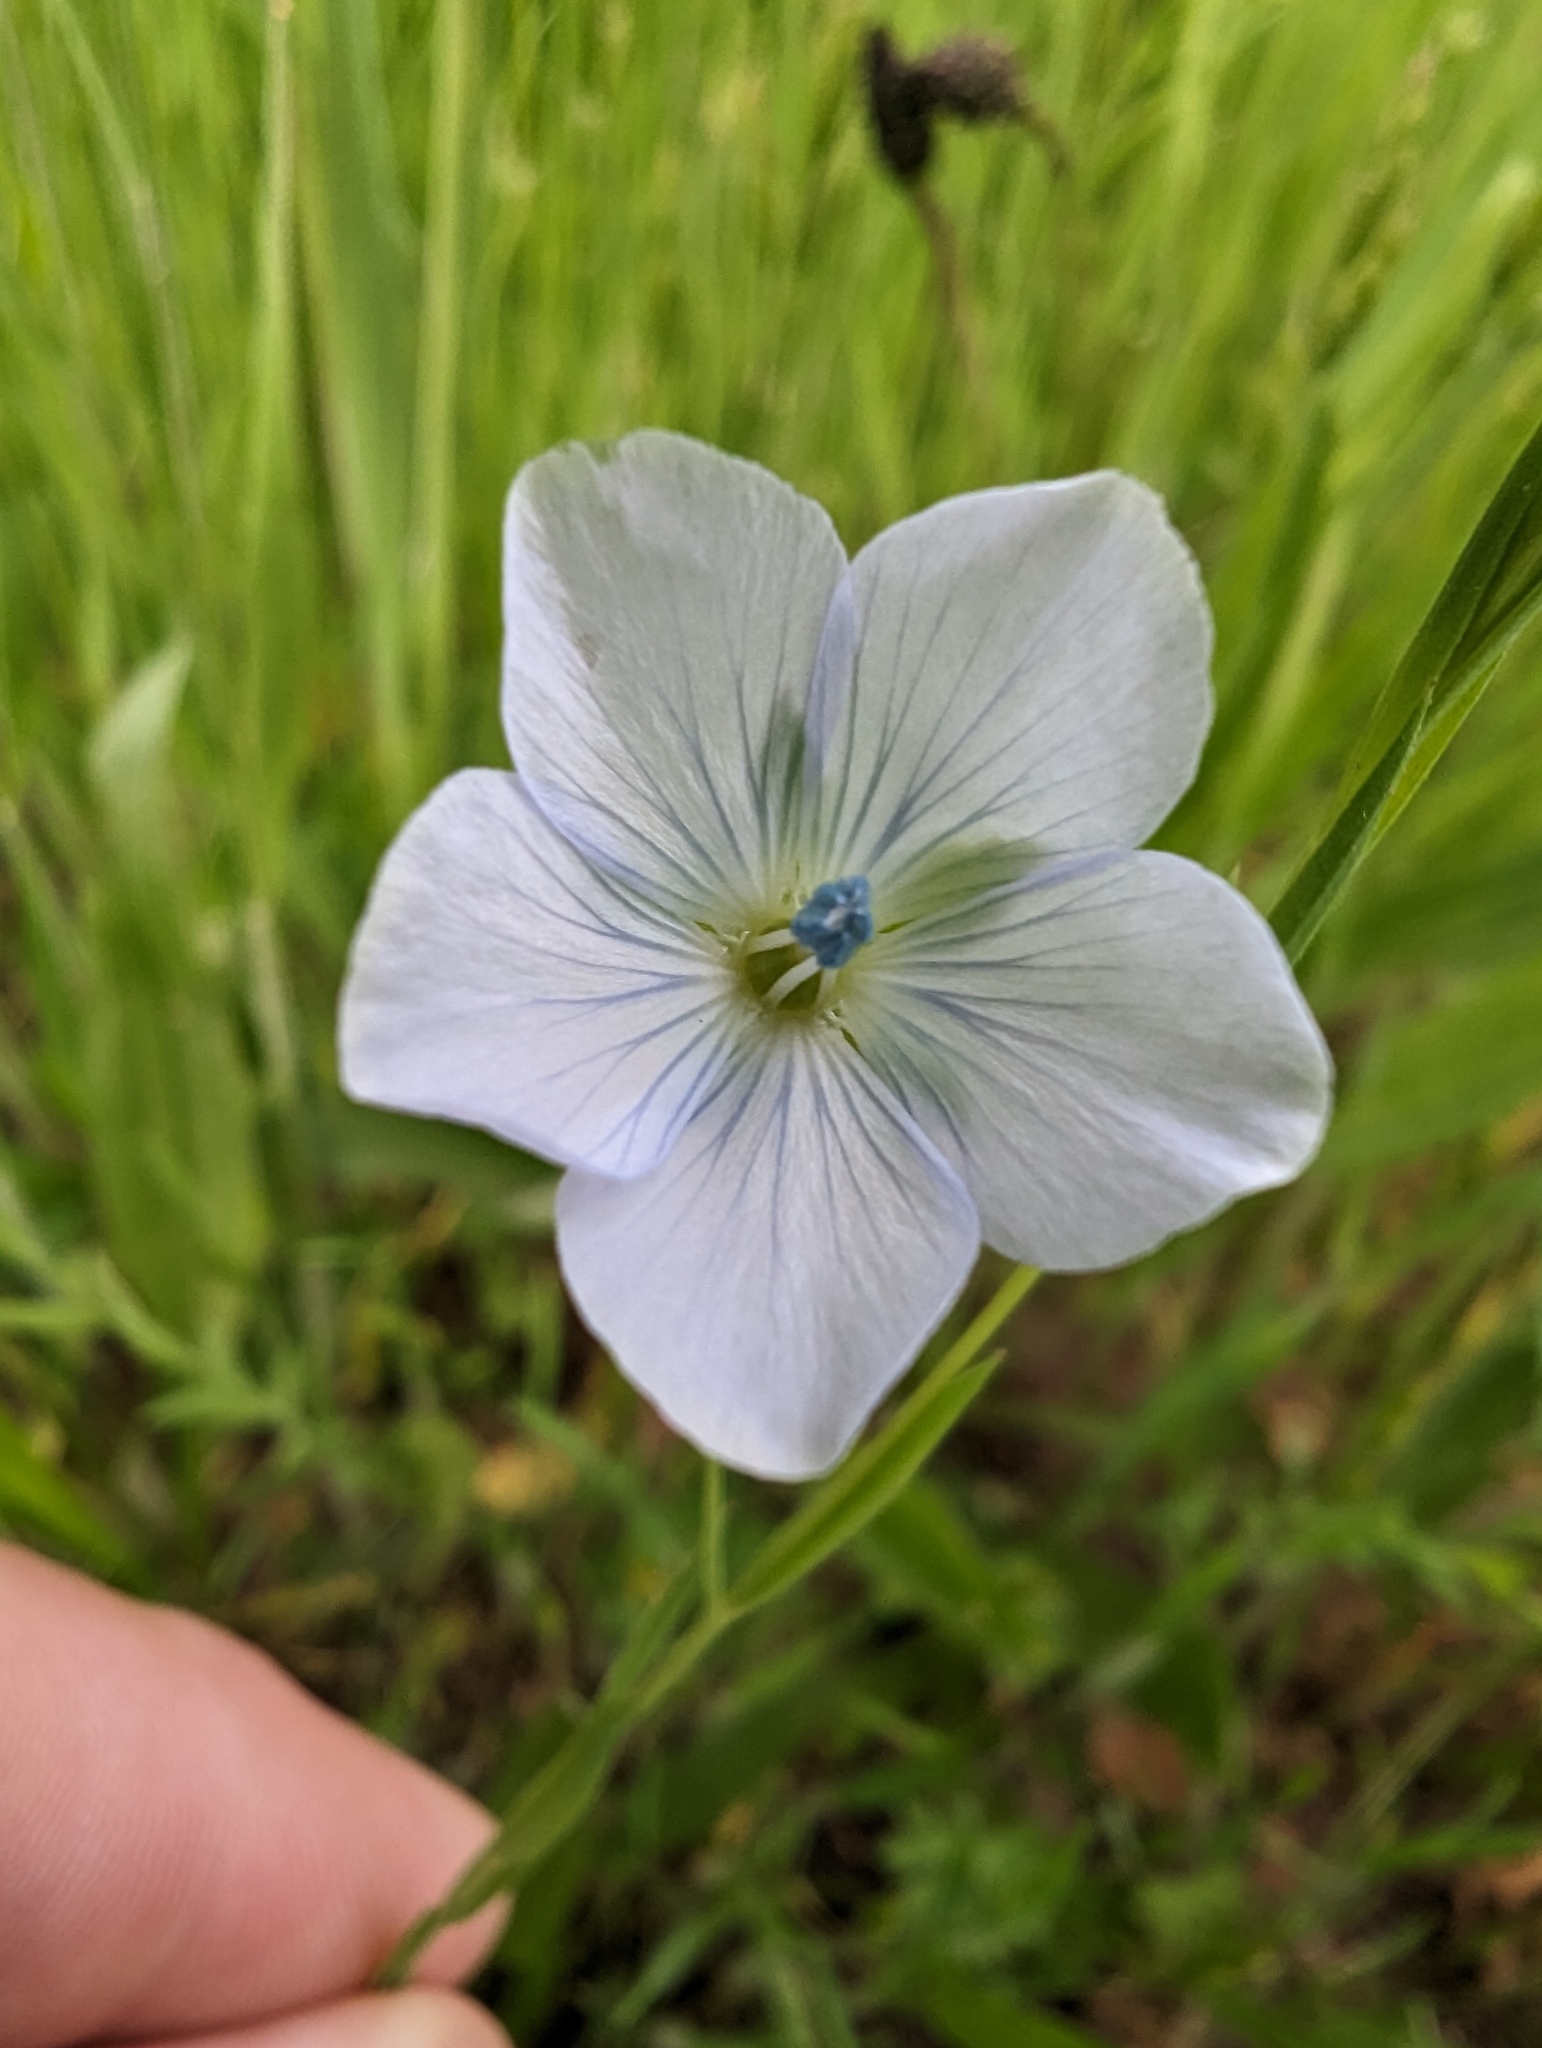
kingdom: Plantae
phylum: Tracheophyta
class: Magnoliopsida
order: Malpighiales
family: Linaceae
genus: Linum
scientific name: Linum bienne
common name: Pale flax
